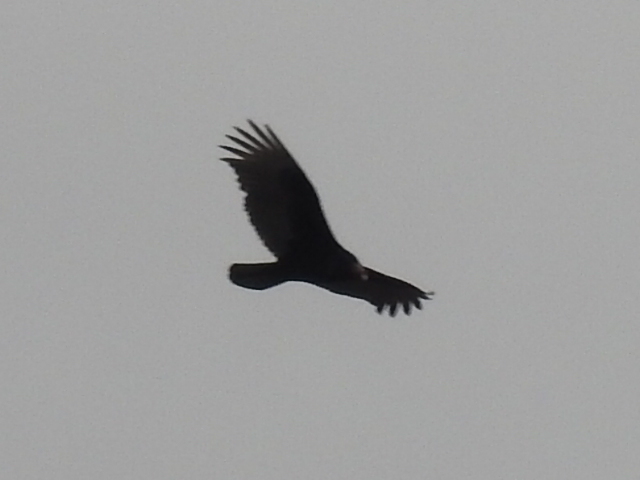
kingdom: Animalia
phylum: Chordata
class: Aves
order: Accipitriformes
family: Cathartidae
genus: Cathartes
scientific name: Cathartes aura
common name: Turkey vulture
